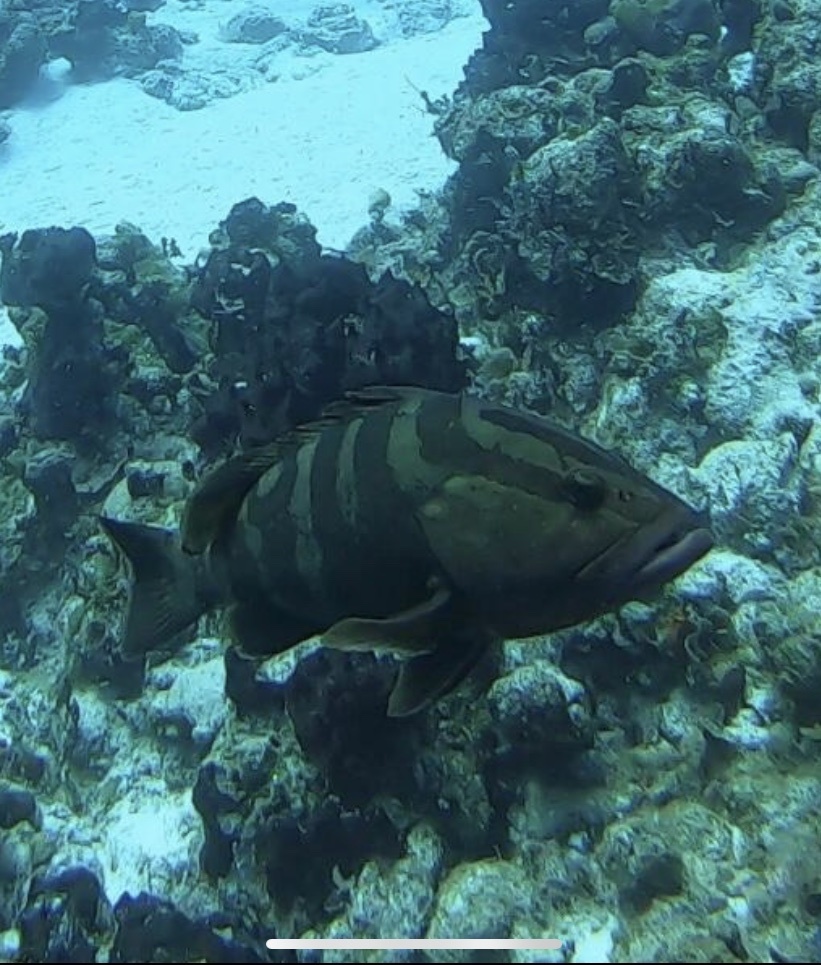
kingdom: Animalia
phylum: Chordata
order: Perciformes
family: Serranidae
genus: Epinephelus
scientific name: Epinephelus striatus
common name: Nassau grouper
